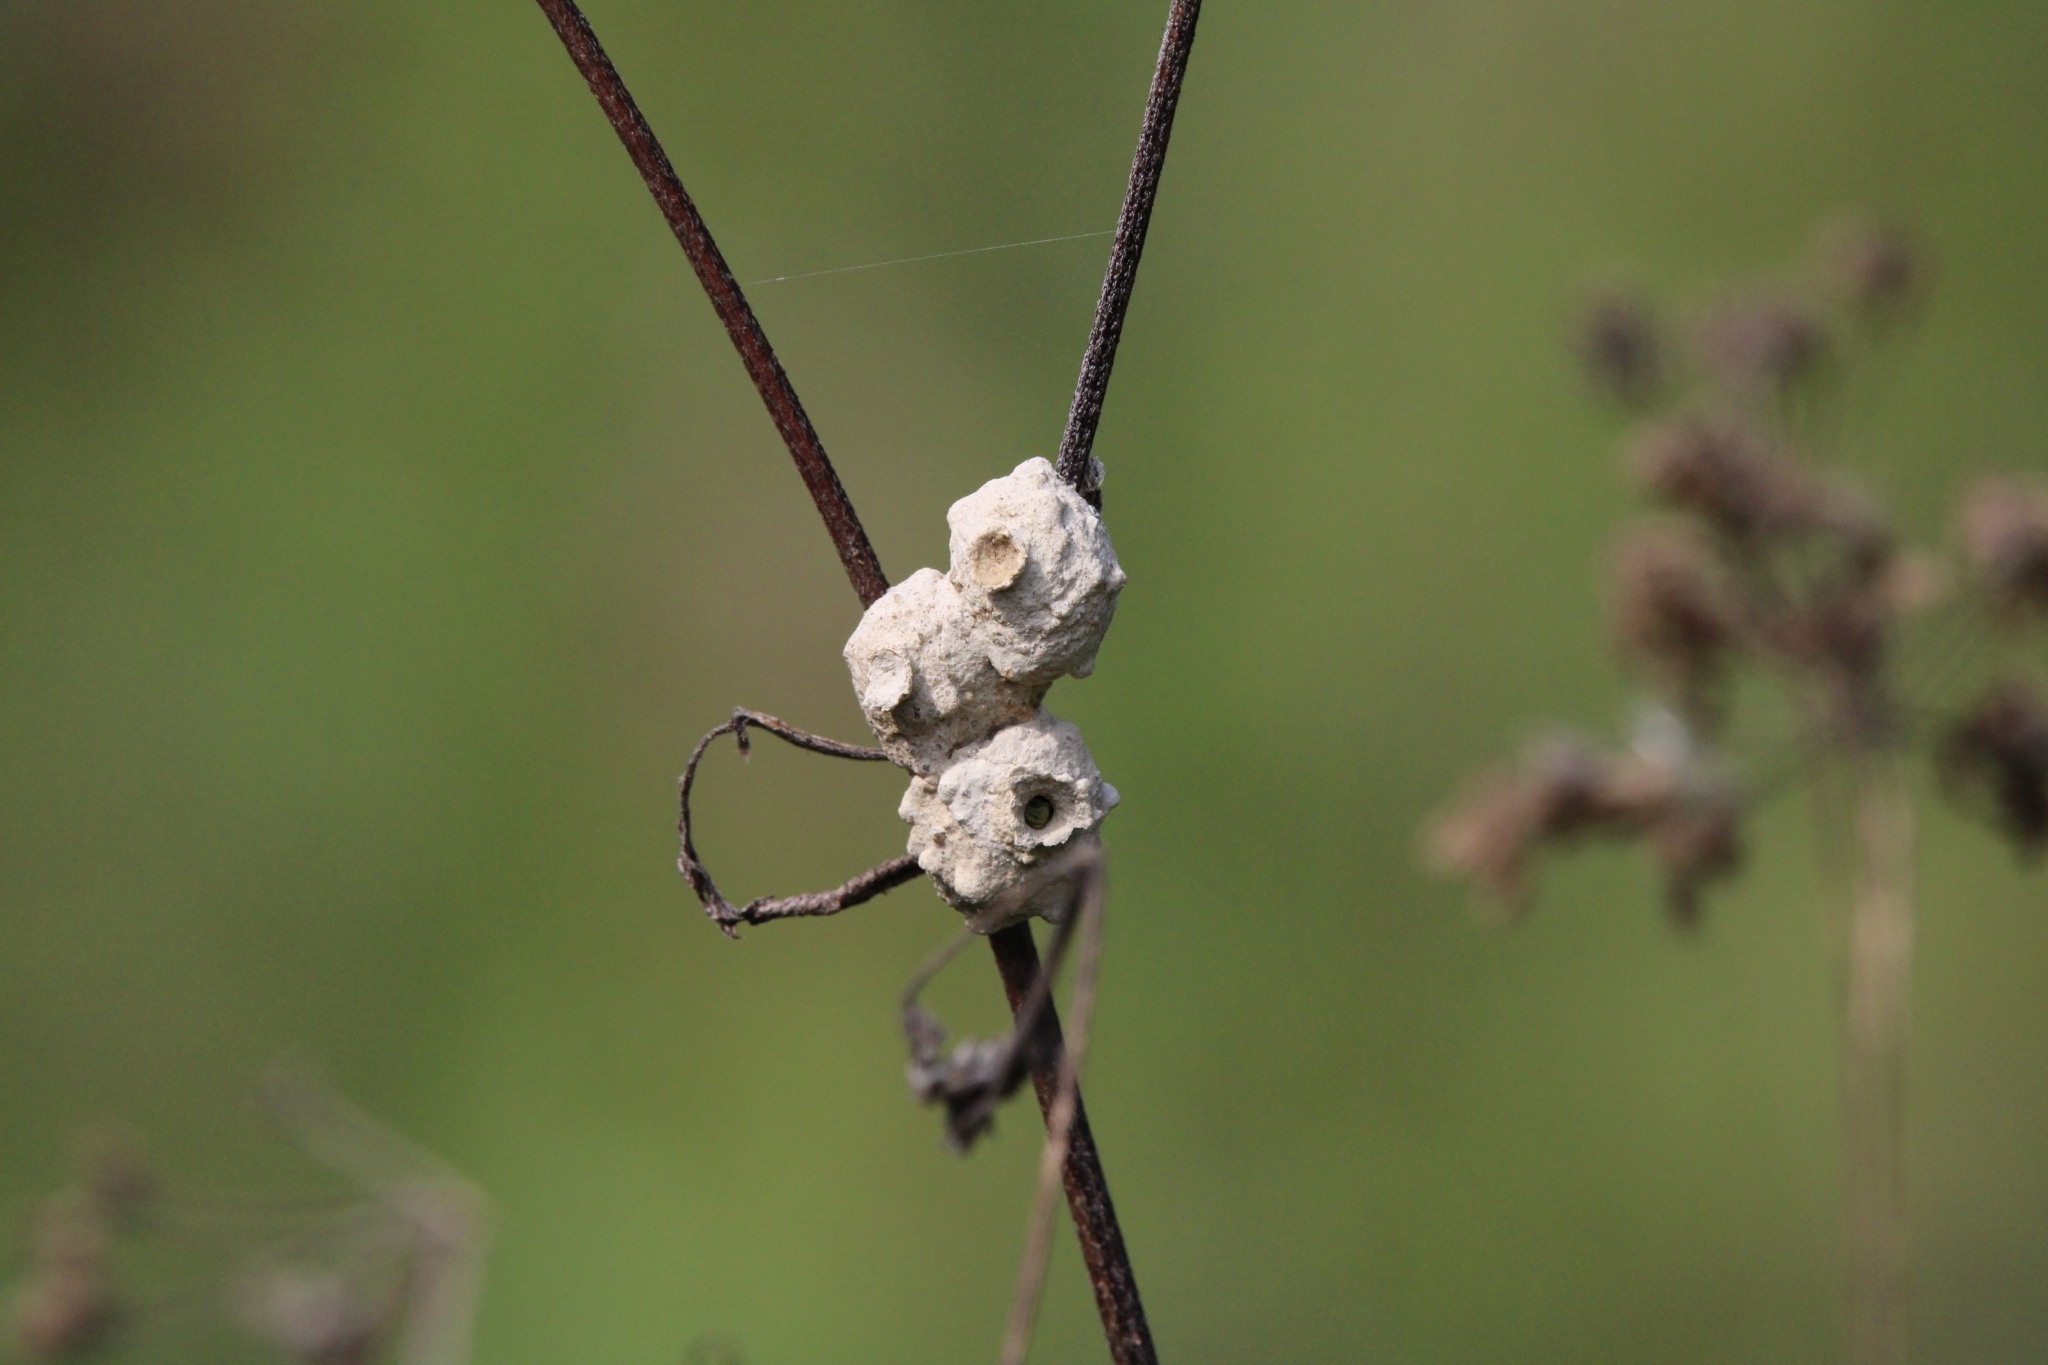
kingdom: Animalia
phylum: Arthropoda
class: Insecta
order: Hymenoptera
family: Vespidae
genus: Eumenes
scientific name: Eumenes
